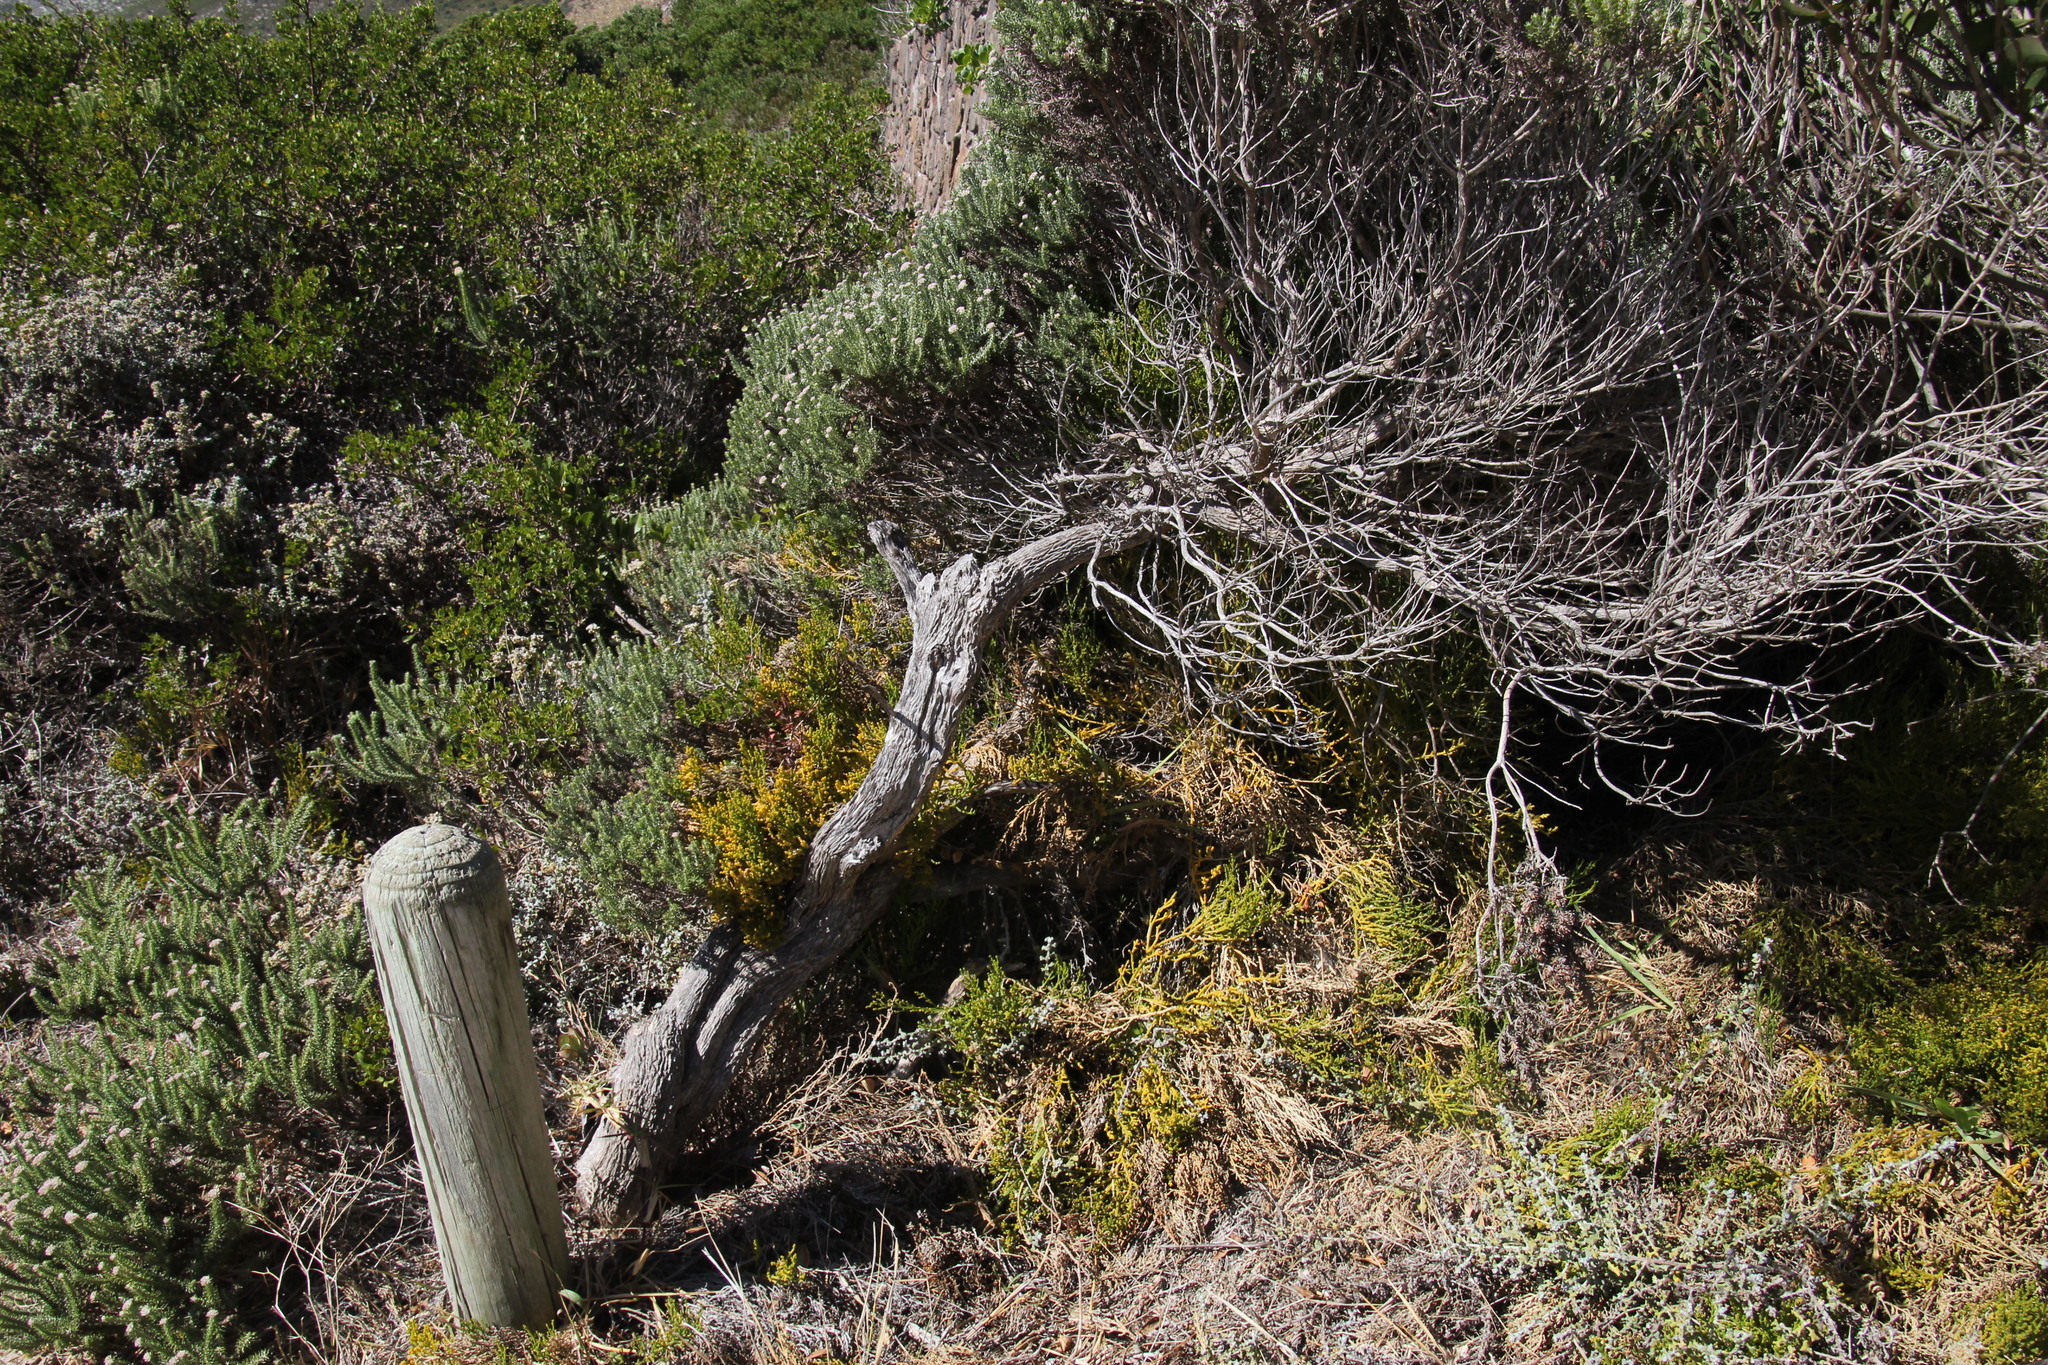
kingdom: Plantae
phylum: Tracheophyta
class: Magnoliopsida
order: Santalales
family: Thesiaceae
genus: Thesium
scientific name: Thesium fragile
